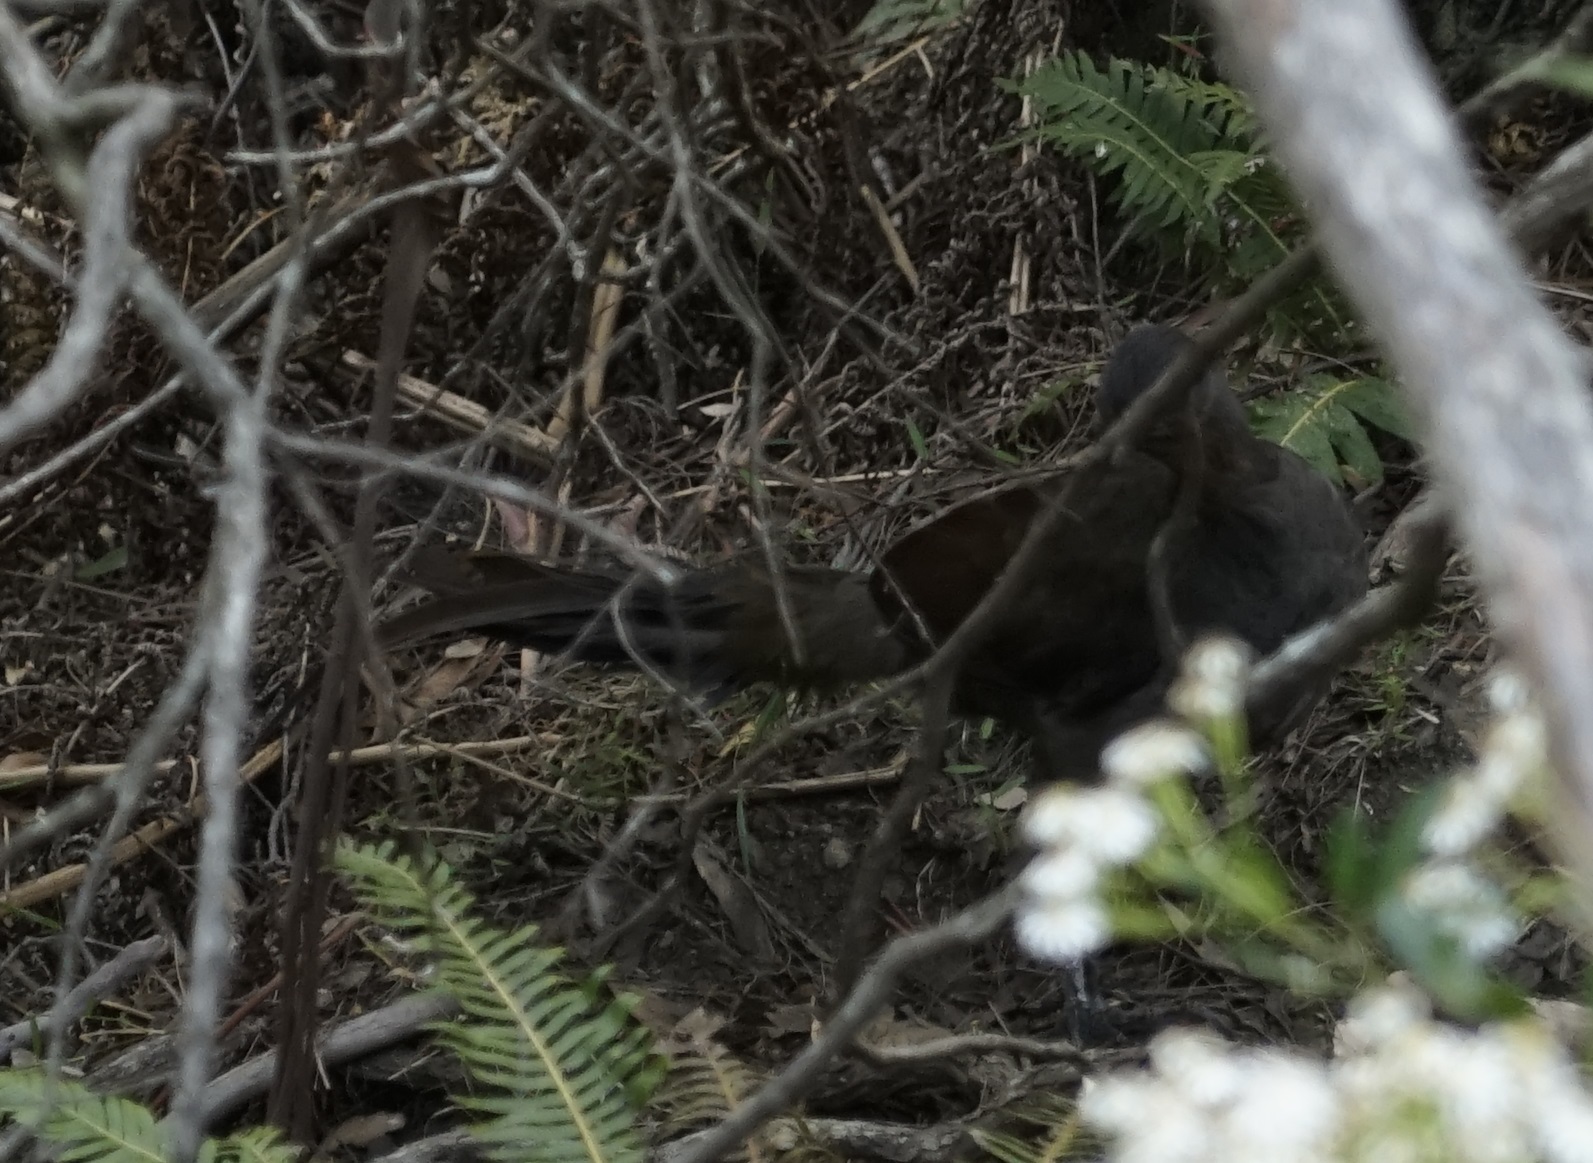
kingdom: Animalia
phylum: Chordata
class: Aves
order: Passeriformes
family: Menuridae
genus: Menura
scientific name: Menura novaehollandiae
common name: Superb lyrebird
